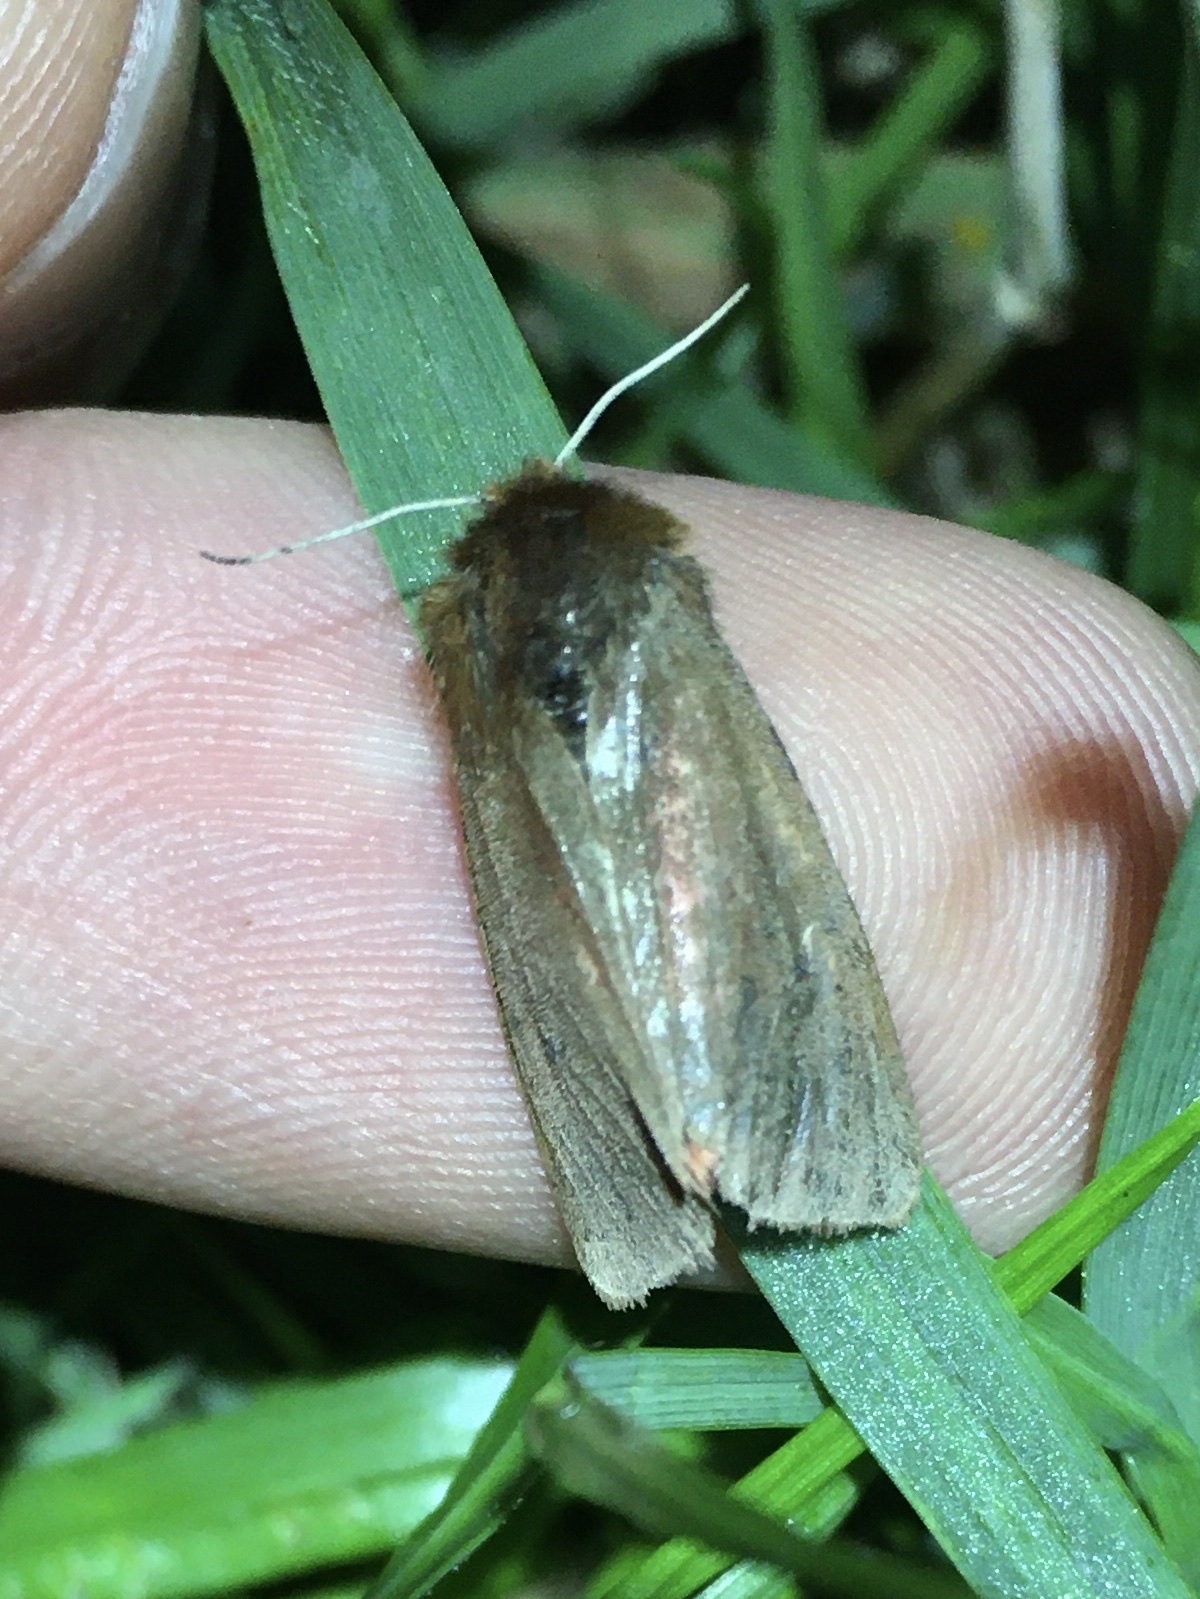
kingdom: Animalia
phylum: Arthropoda
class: Insecta
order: Lepidoptera
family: Erebidae
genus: Phragmatobia
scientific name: Phragmatobia fuliginosa
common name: Ruby tiger
